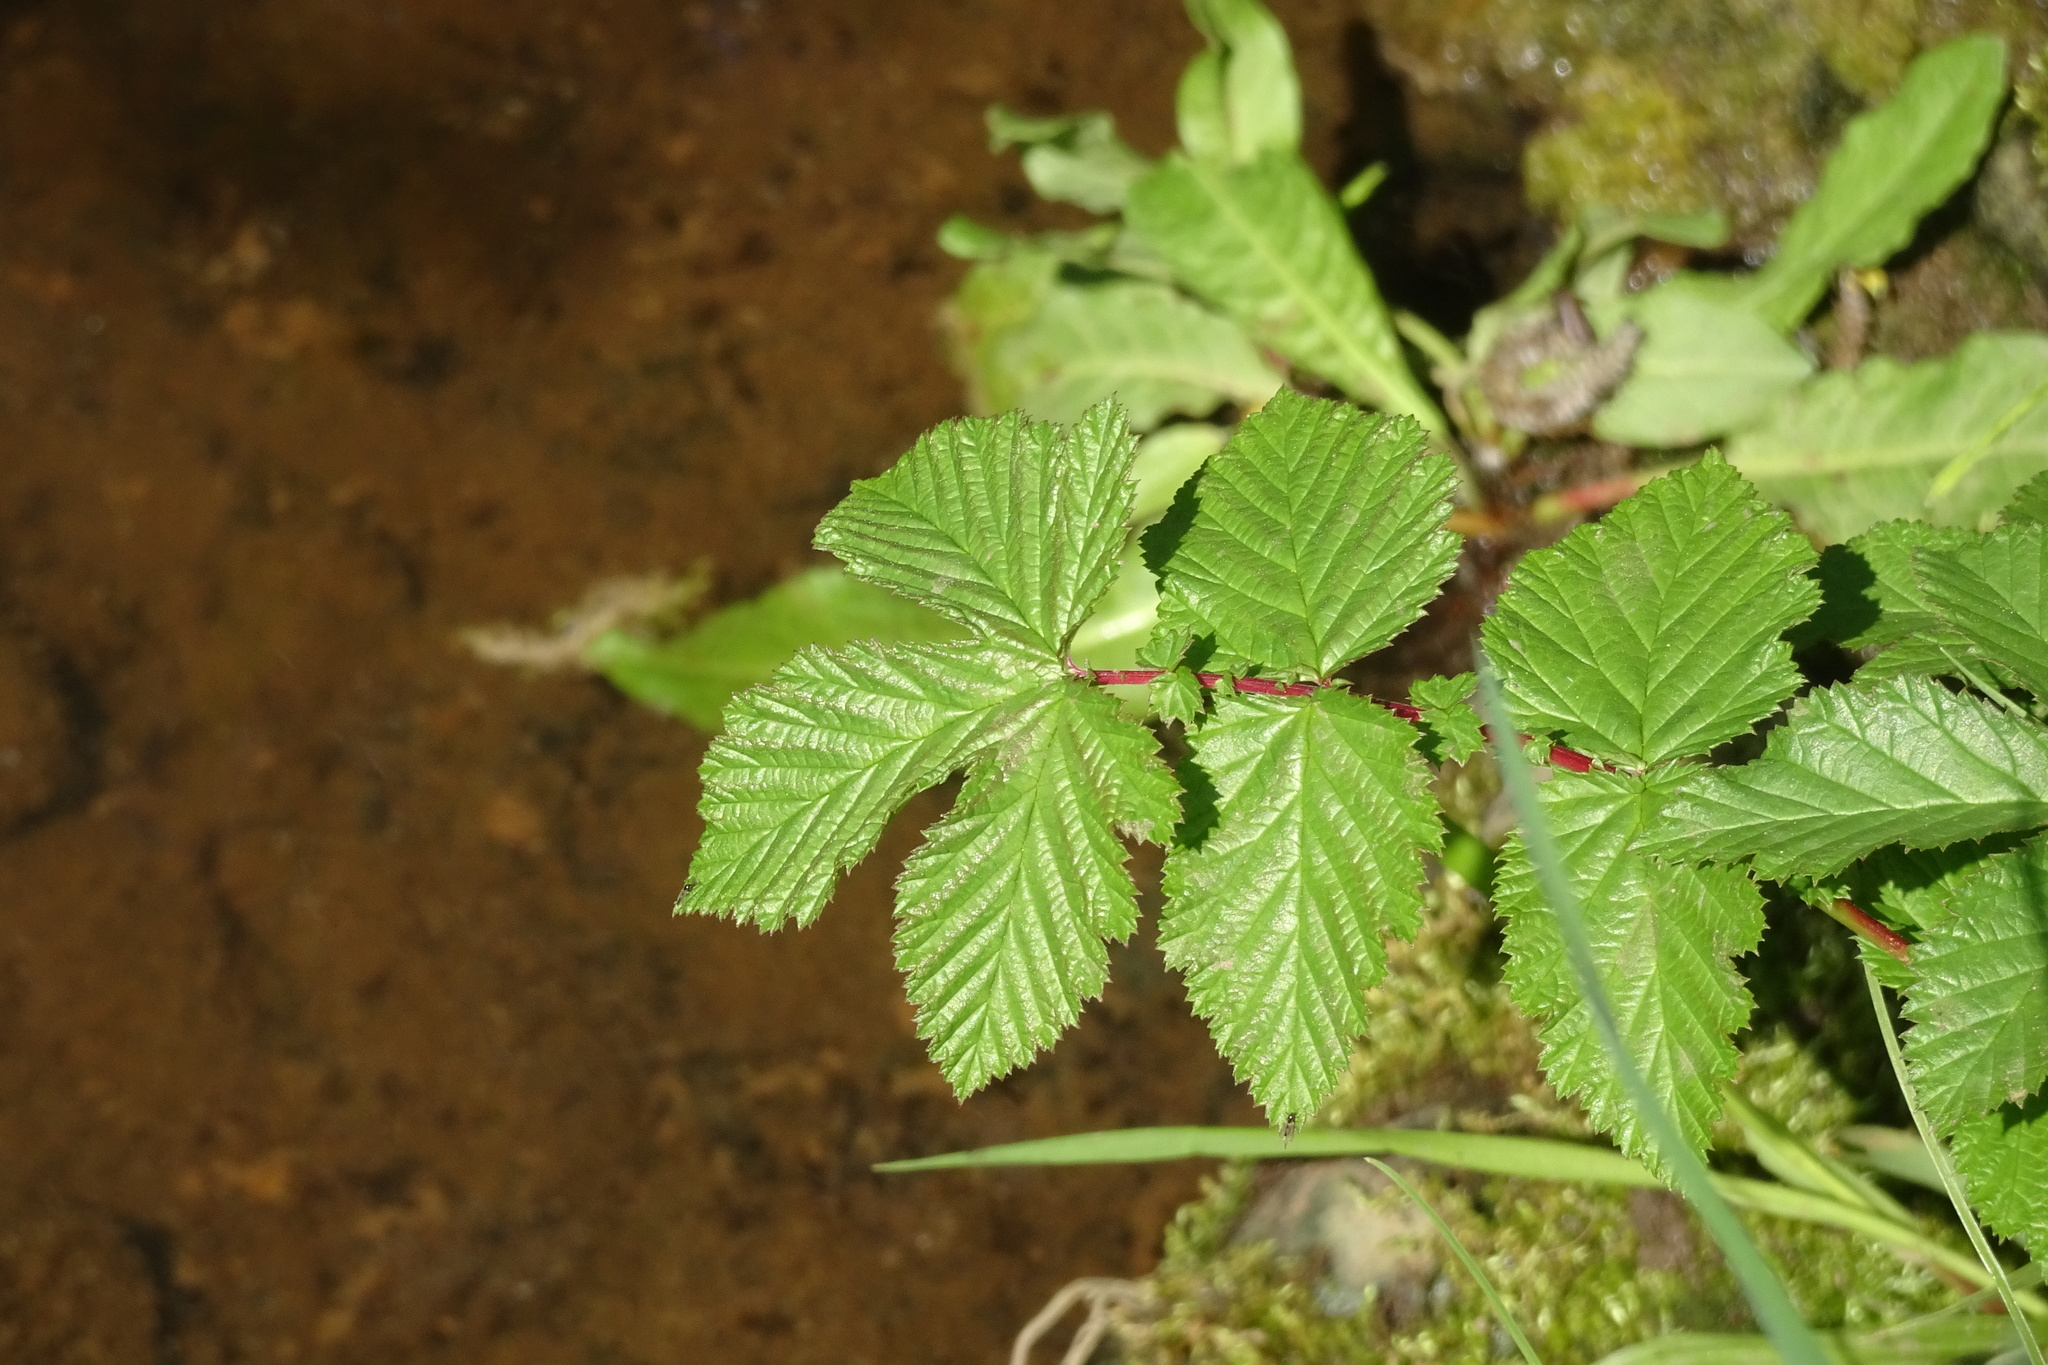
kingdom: Plantae
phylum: Tracheophyta
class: Magnoliopsida
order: Rosales
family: Rosaceae
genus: Filipendula
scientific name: Filipendula ulmaria
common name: Meadowsweet
